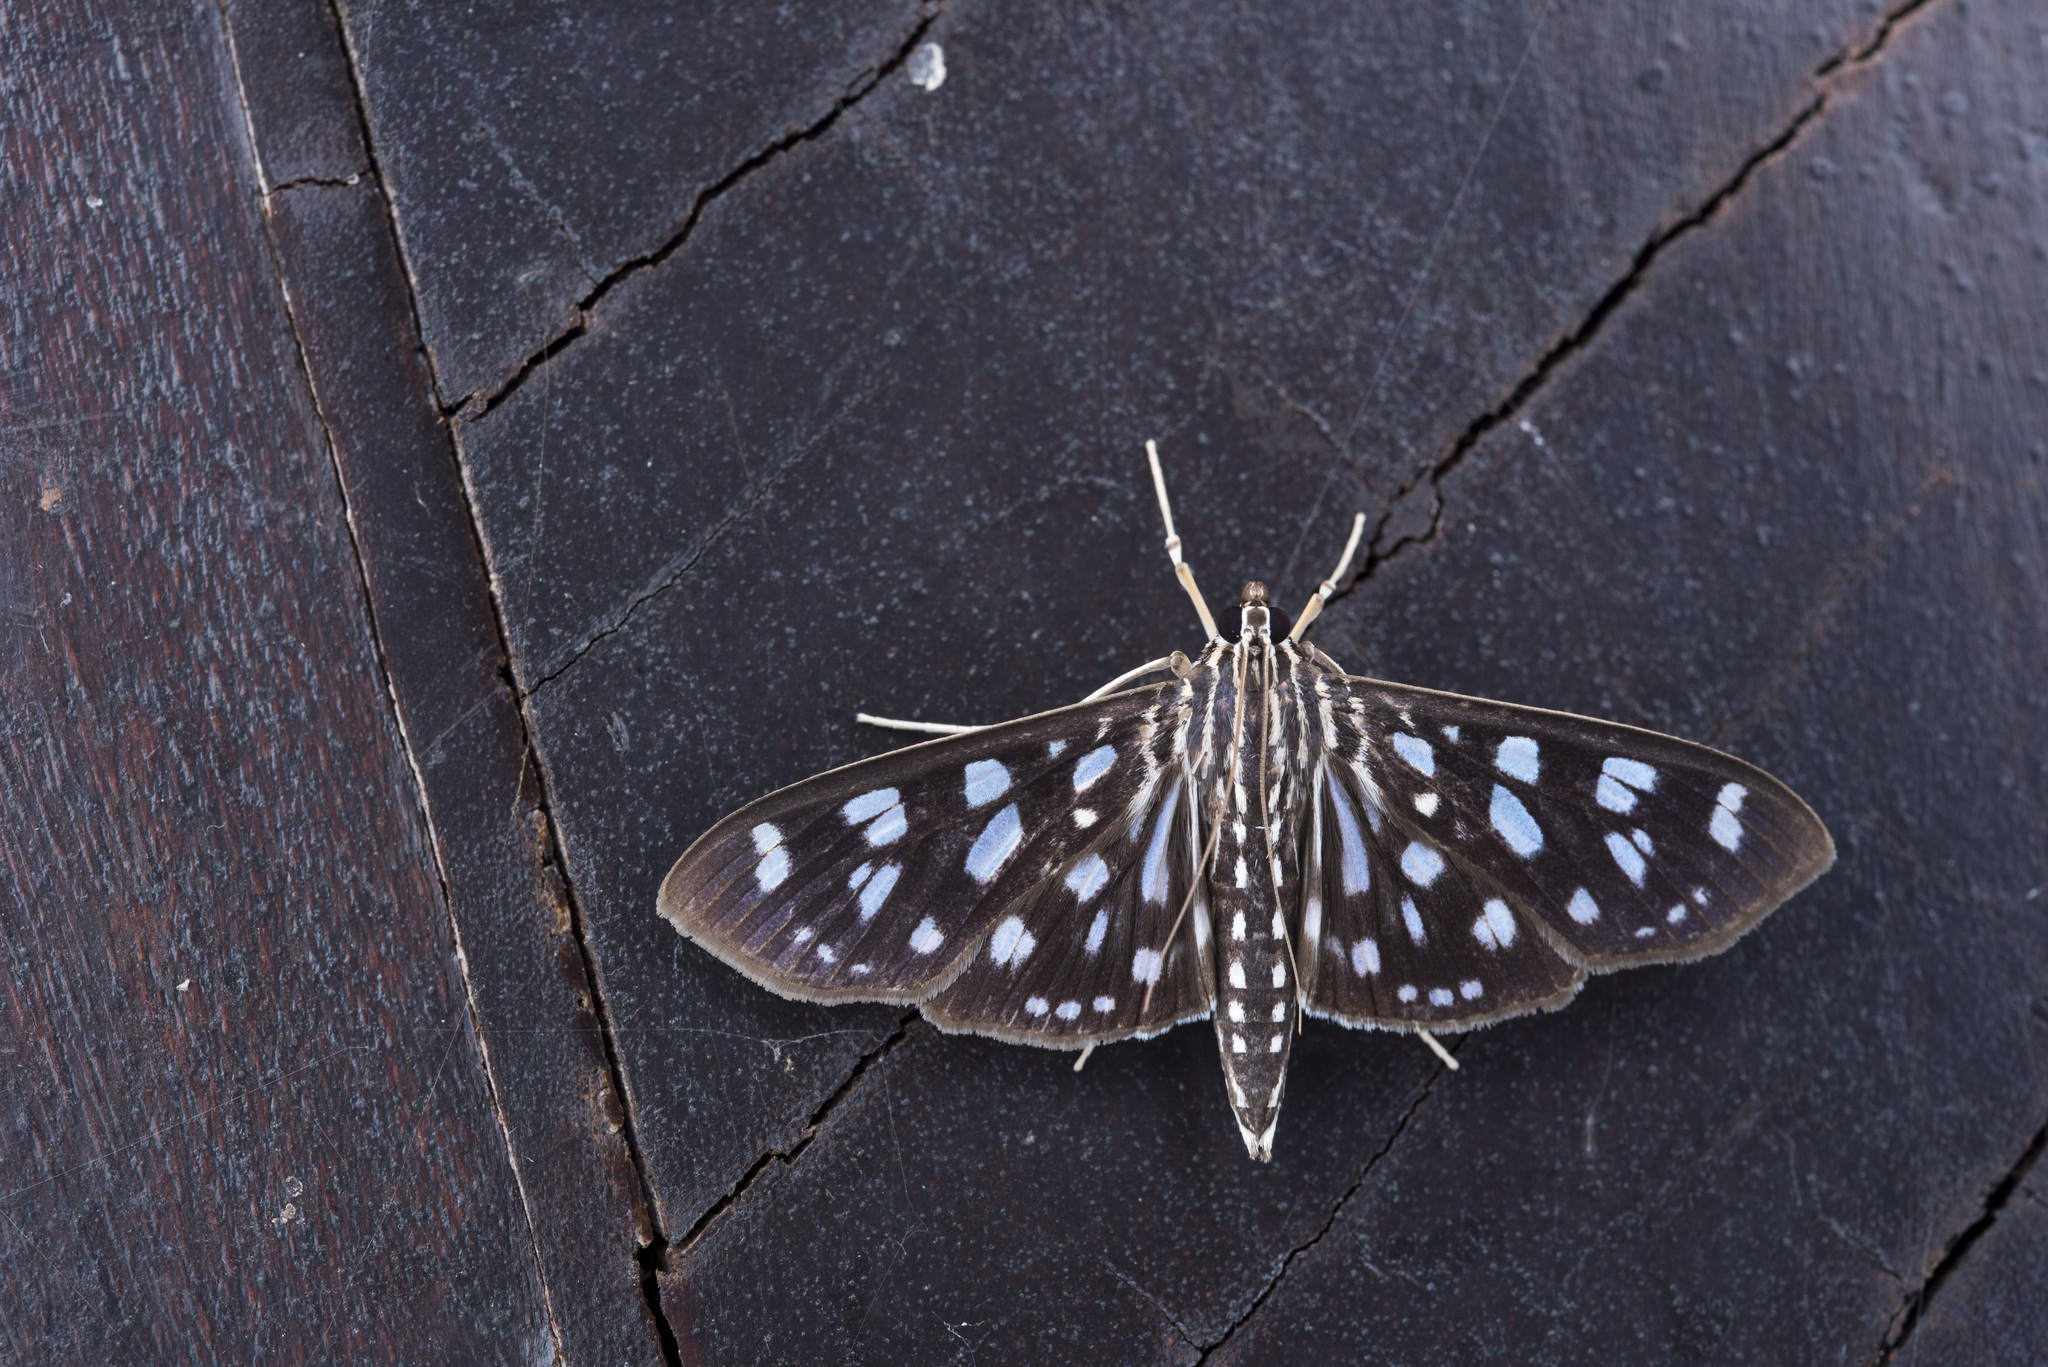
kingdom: Animalia
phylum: Arthropoda
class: Insecta
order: Lepidoptera
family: Crambidae
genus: Pygospila
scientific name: Pygospila tyres
